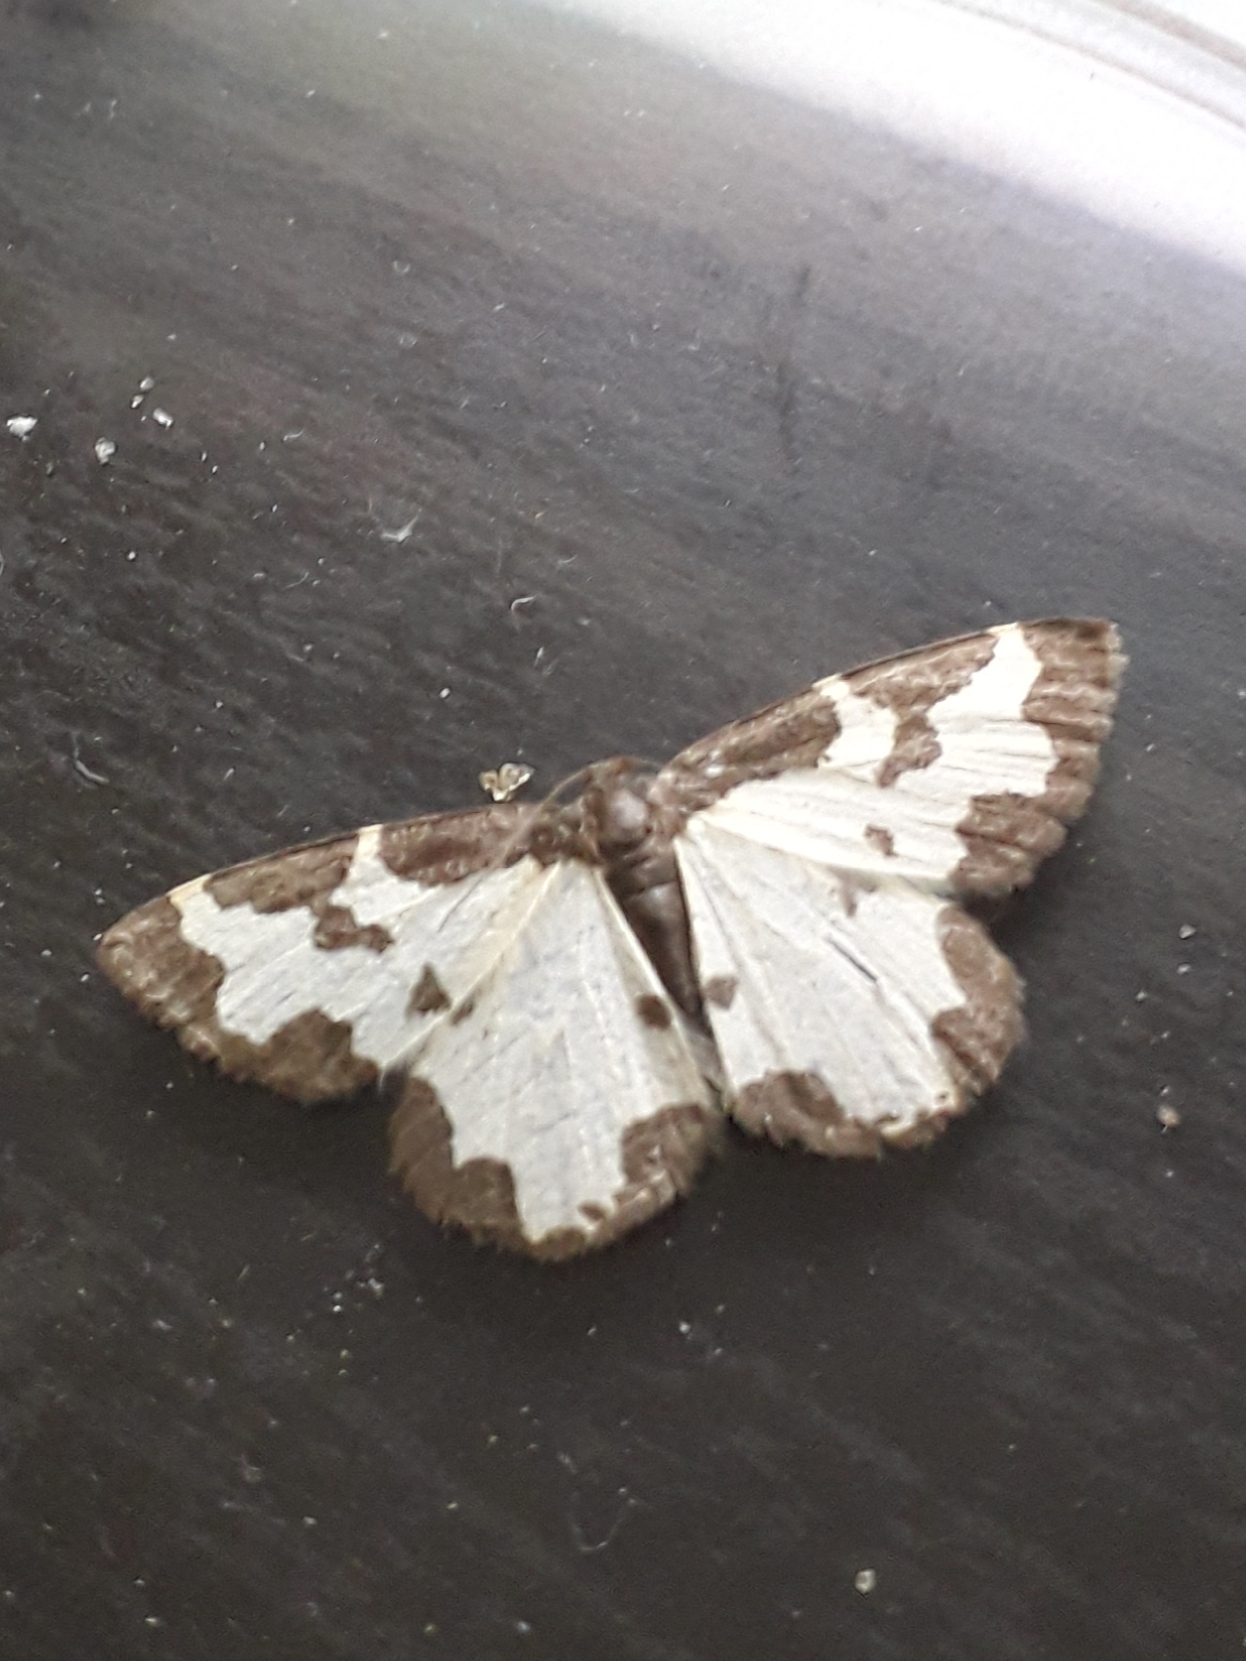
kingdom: Animalia
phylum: Arthropoda
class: Insecta
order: Lepidoptera
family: Geometridae
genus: Lomaspilis
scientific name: Lomaspilis marginata
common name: Clouded border
